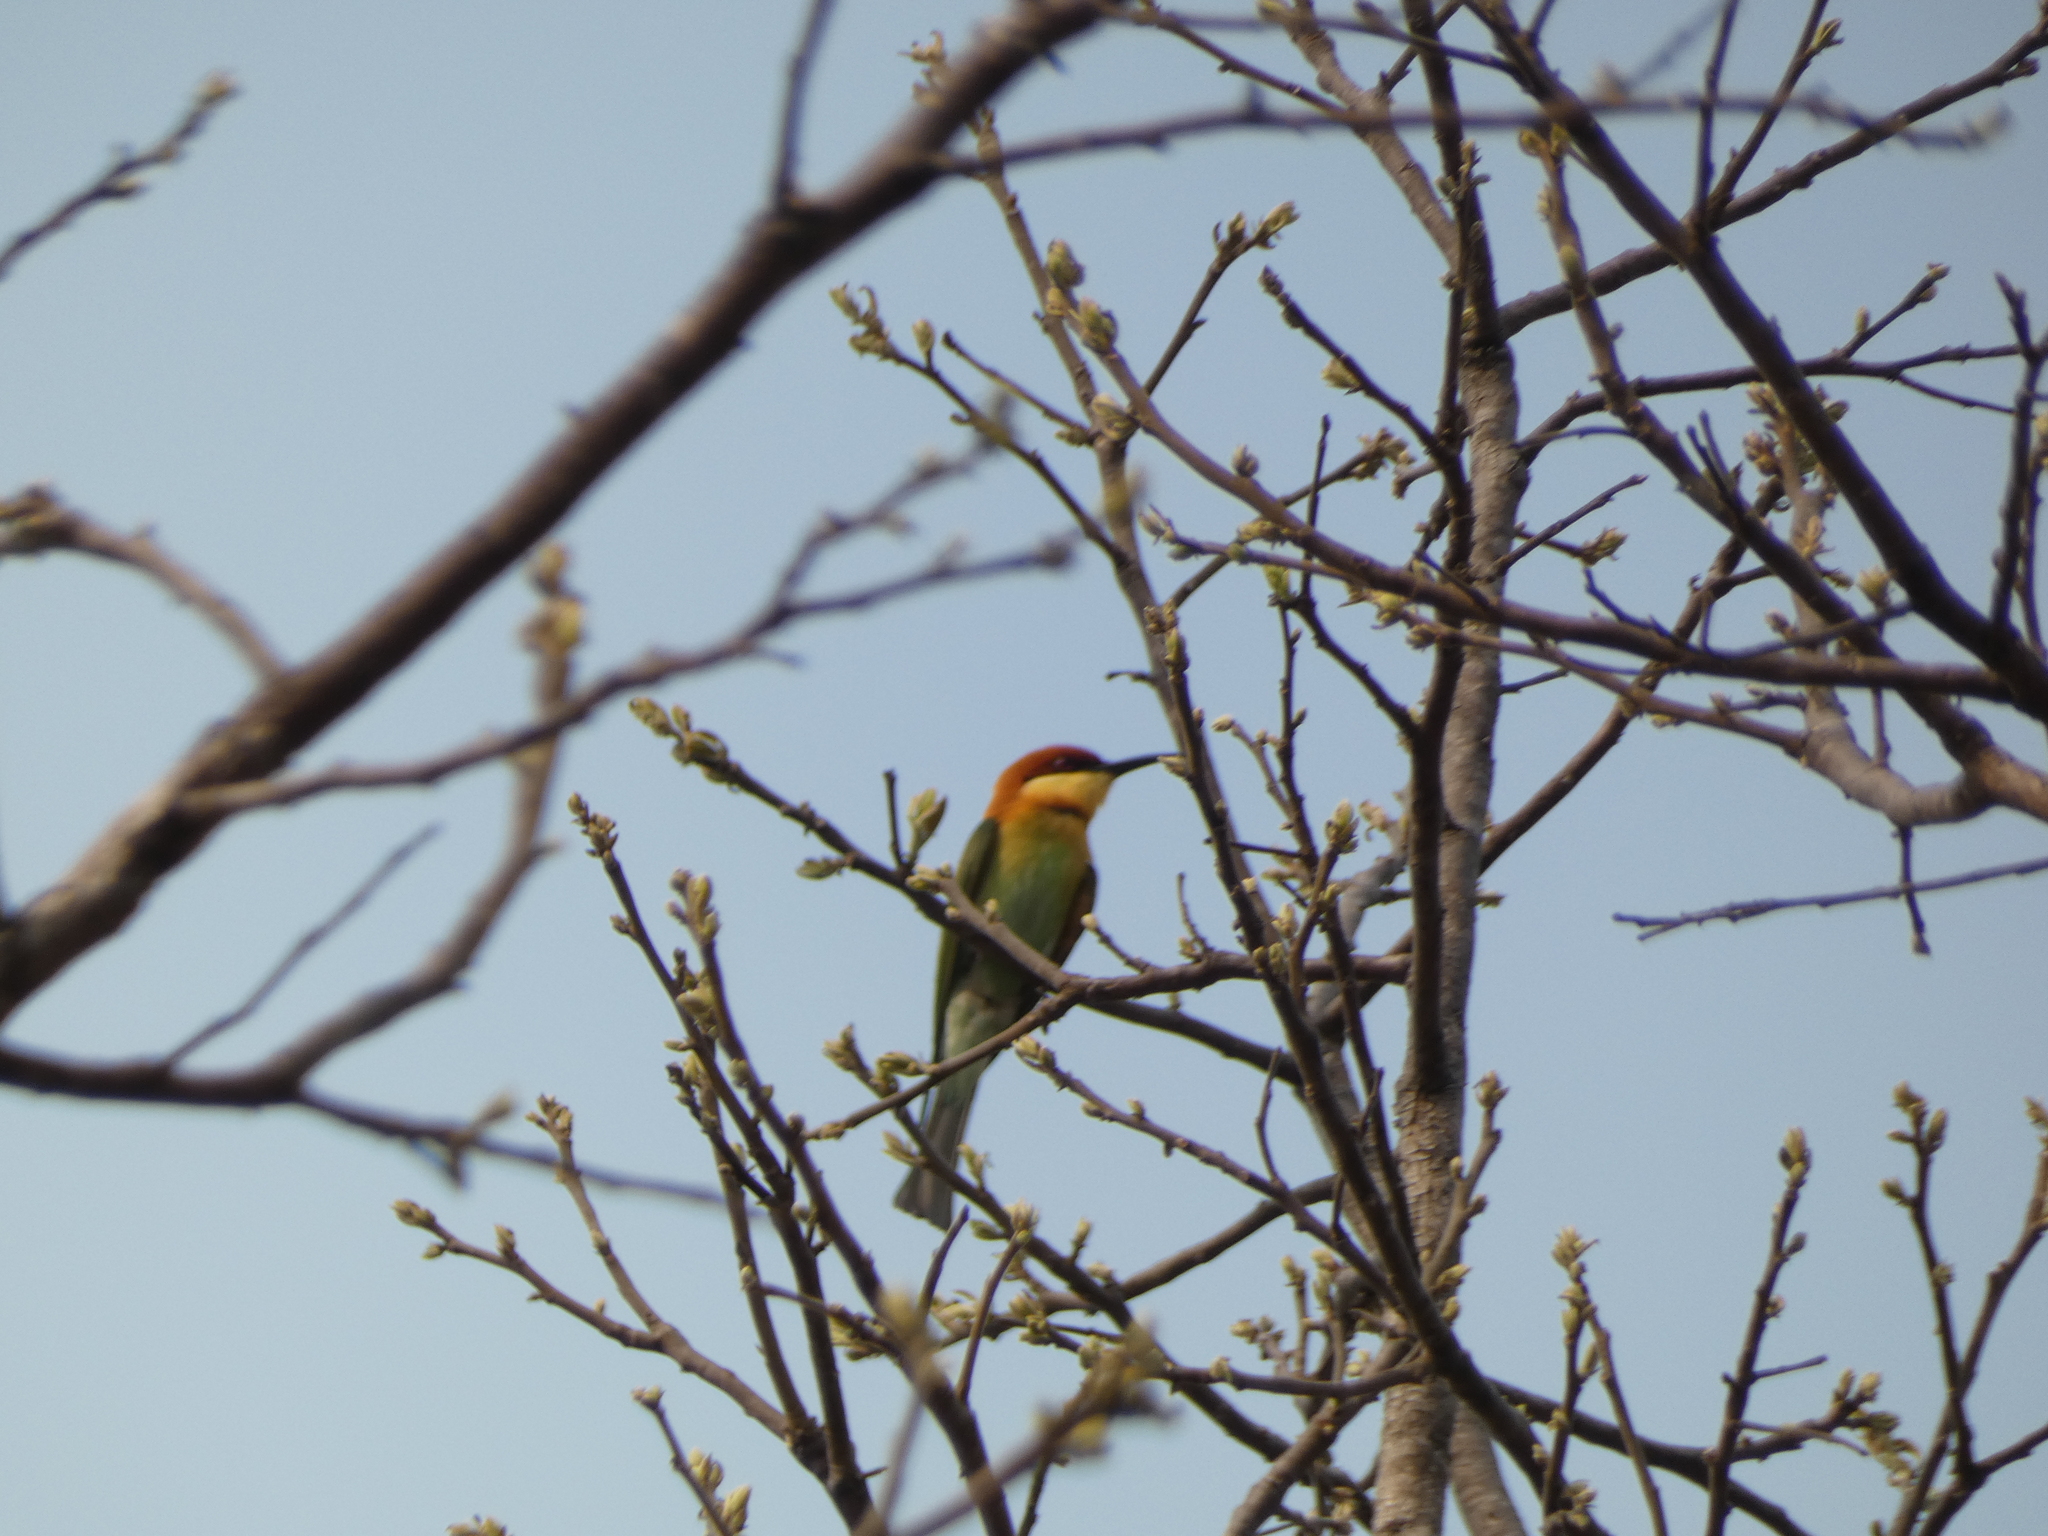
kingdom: Animalia
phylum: Chordata
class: Aves
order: Coraciiformes
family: Meropidae
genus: Merops
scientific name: Merops leschenaulti
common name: Chestnut-headed bee-eater
